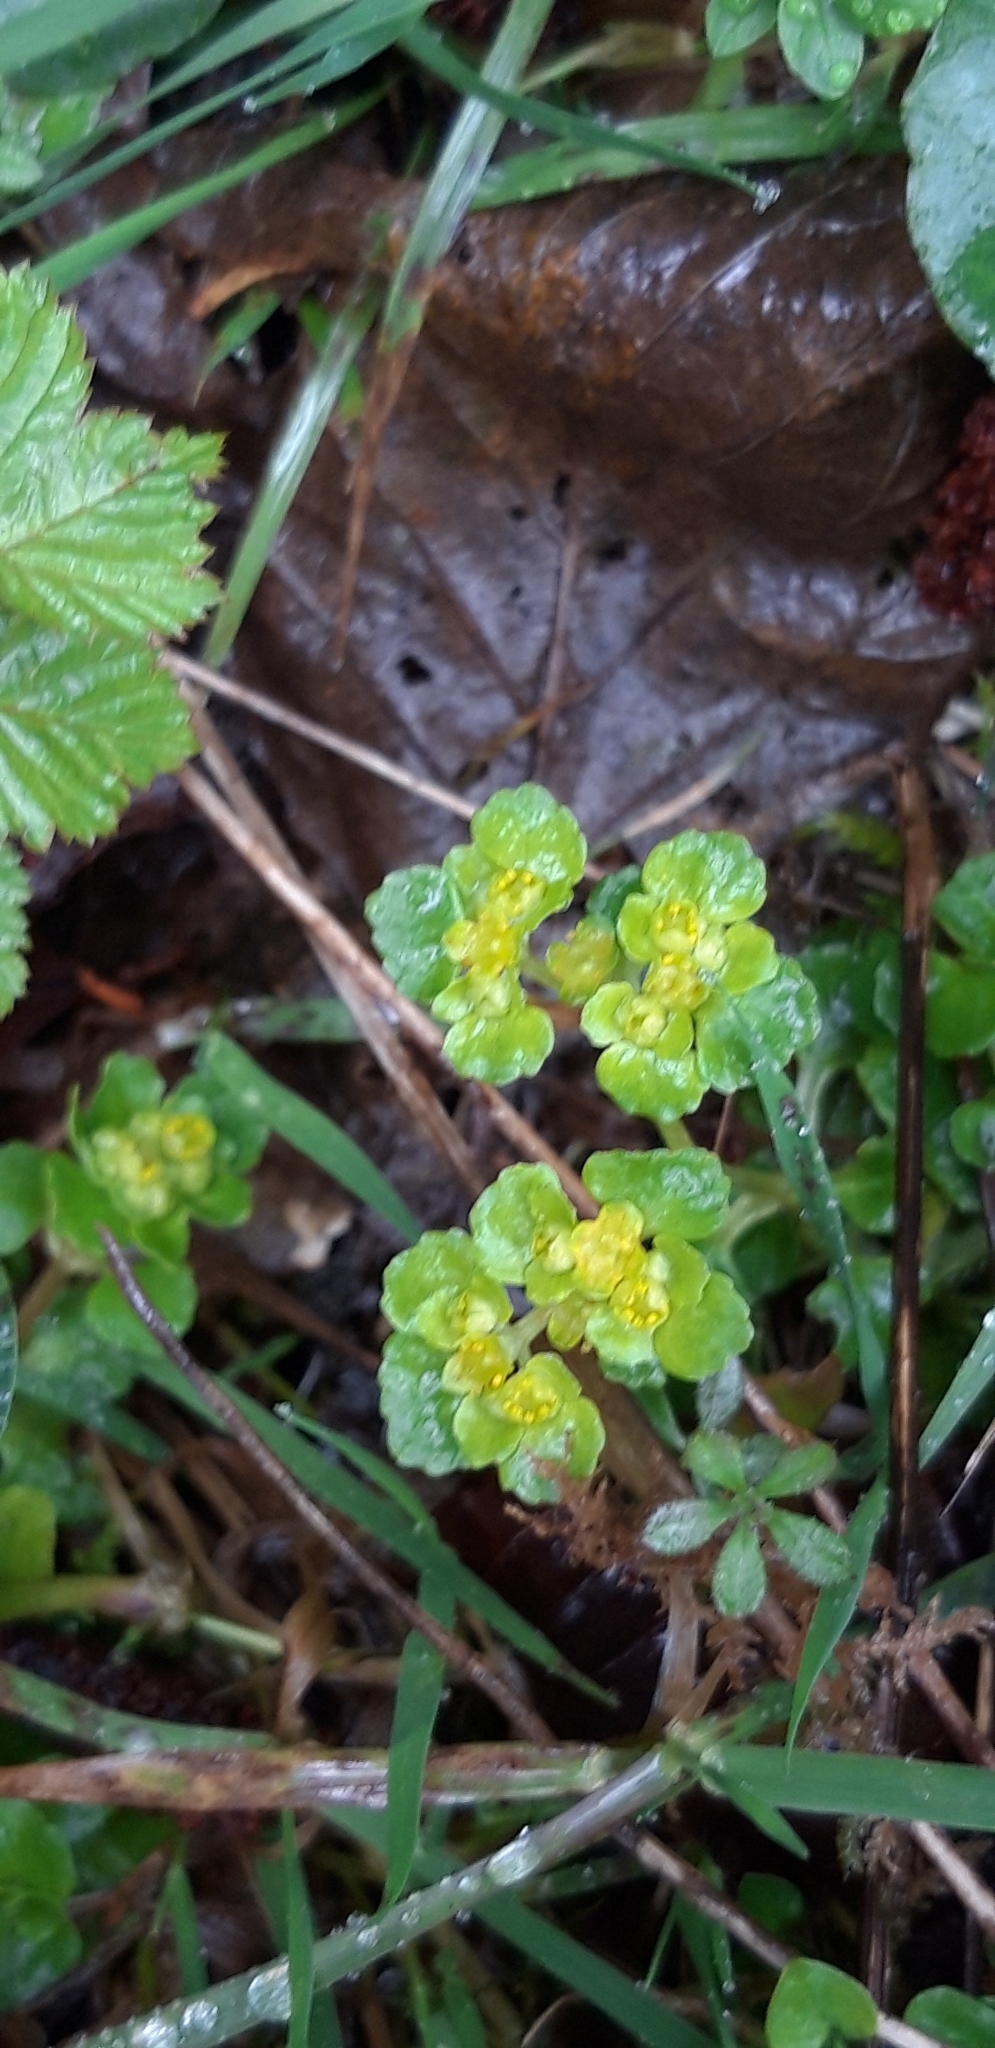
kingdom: Plantae
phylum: Tracheophyta
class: Magnoliopsida
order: Saxifragales
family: Saxifragaceae
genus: Chrysosplenium
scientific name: Chrysosplenium oppositifolium
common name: Opposite-leaved golden-saxifrage
